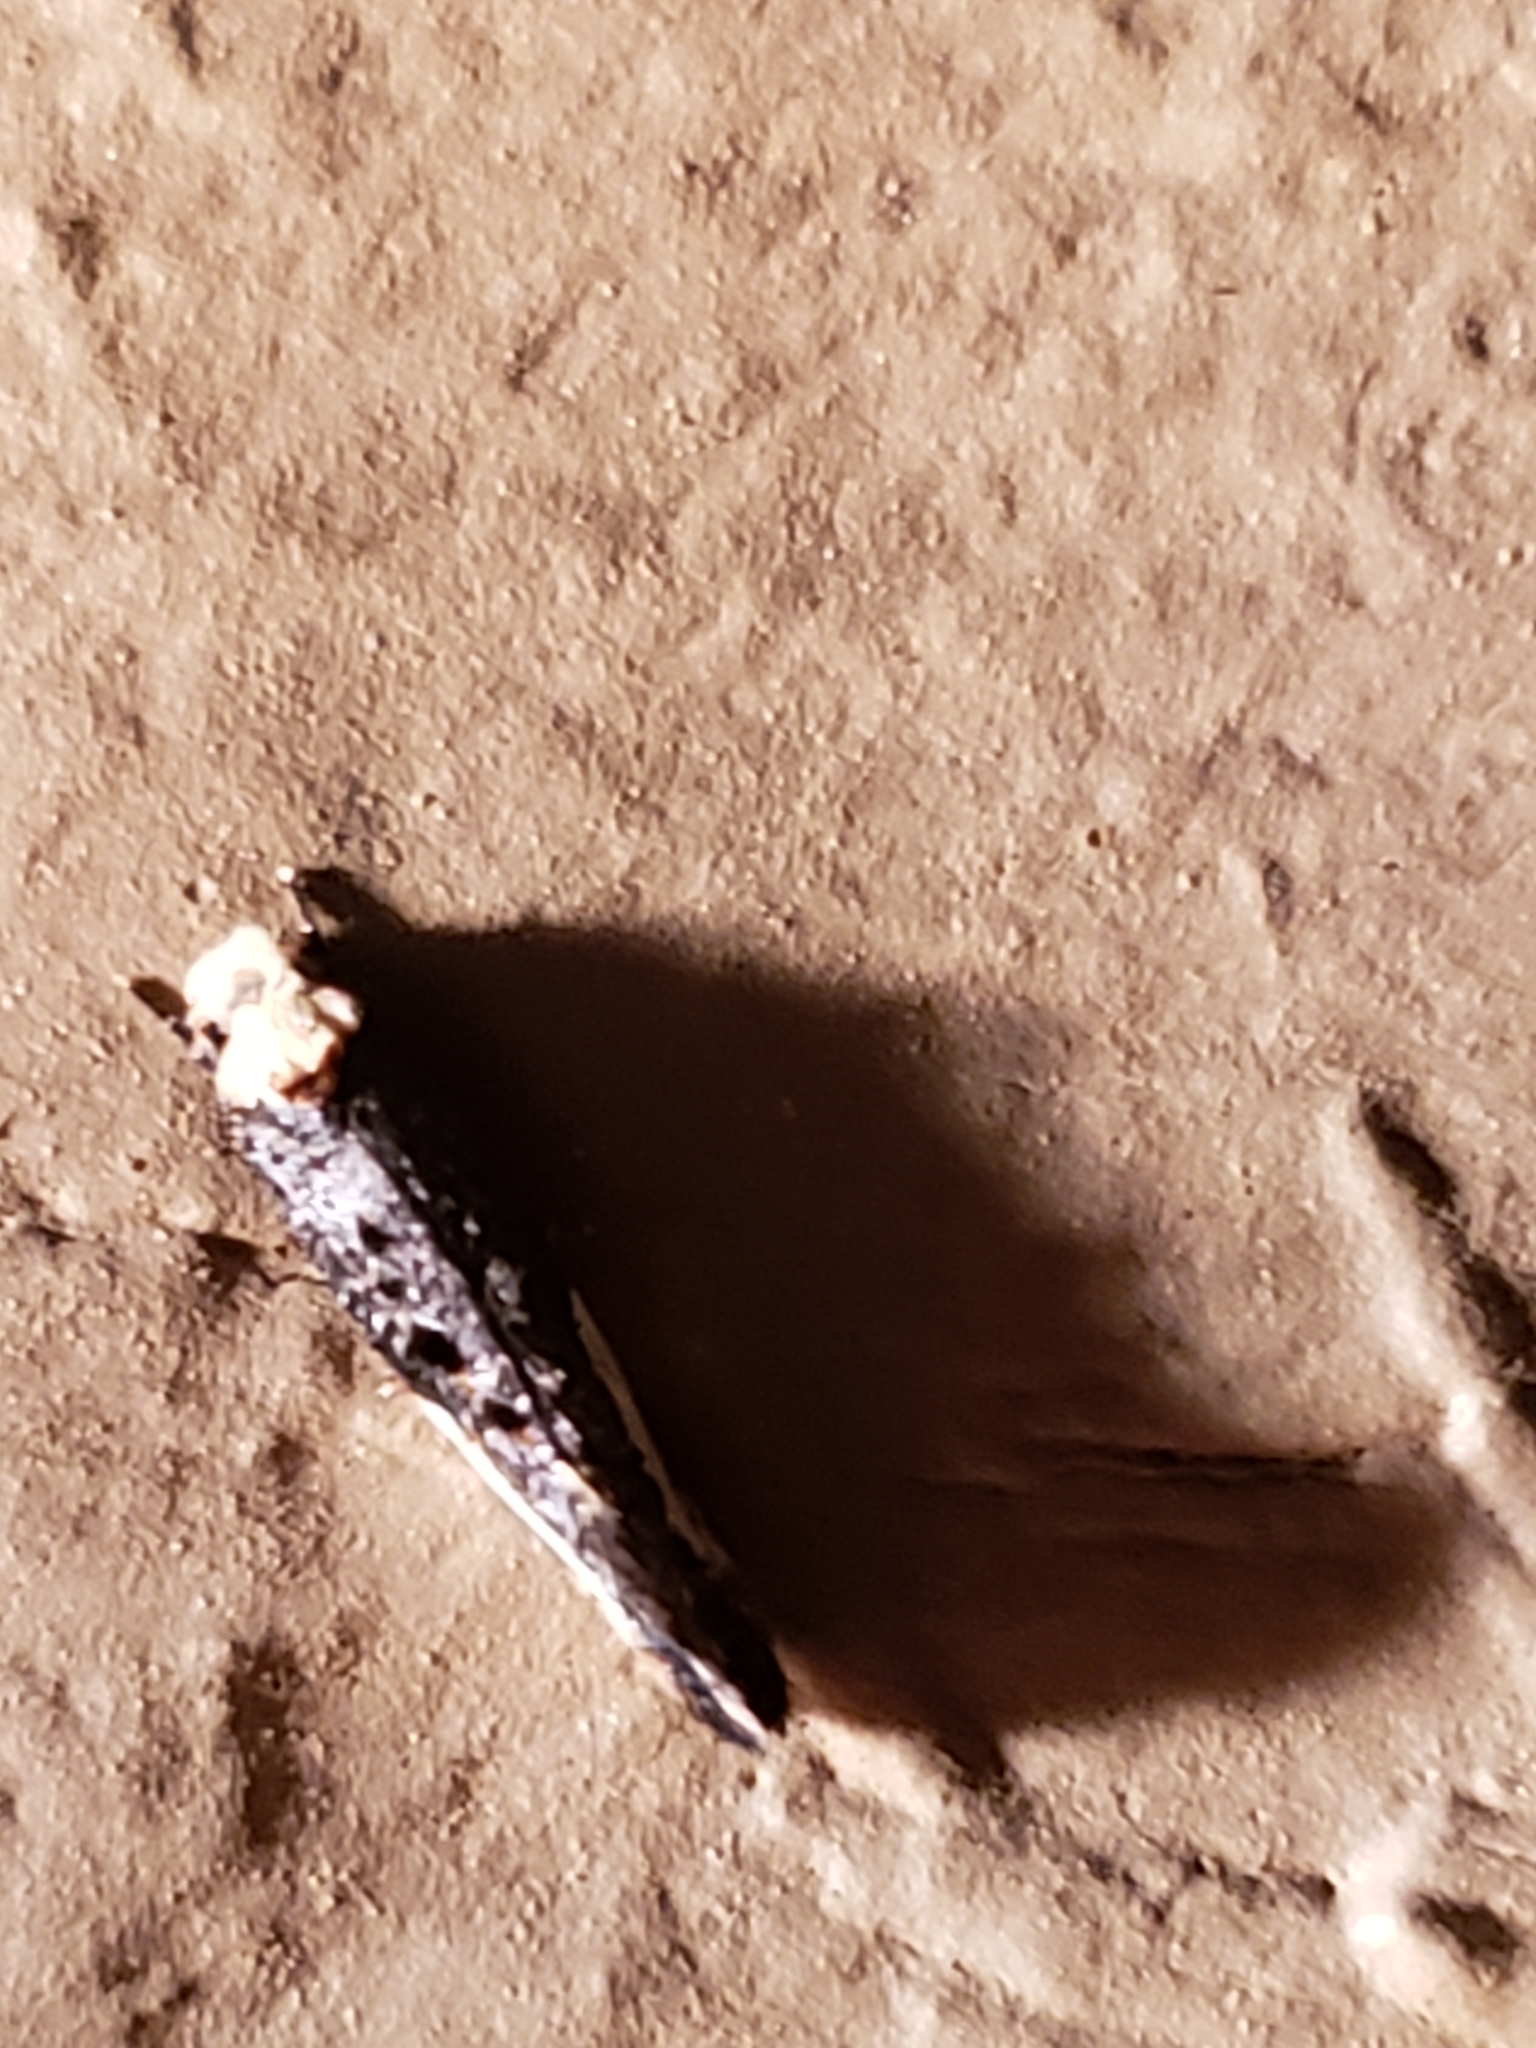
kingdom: Animalia
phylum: Arthropoda
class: Insecta
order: Lepidoptera
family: Tineidae
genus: Monopis
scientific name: Monopis longella
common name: Pavlovski's monopis moth
